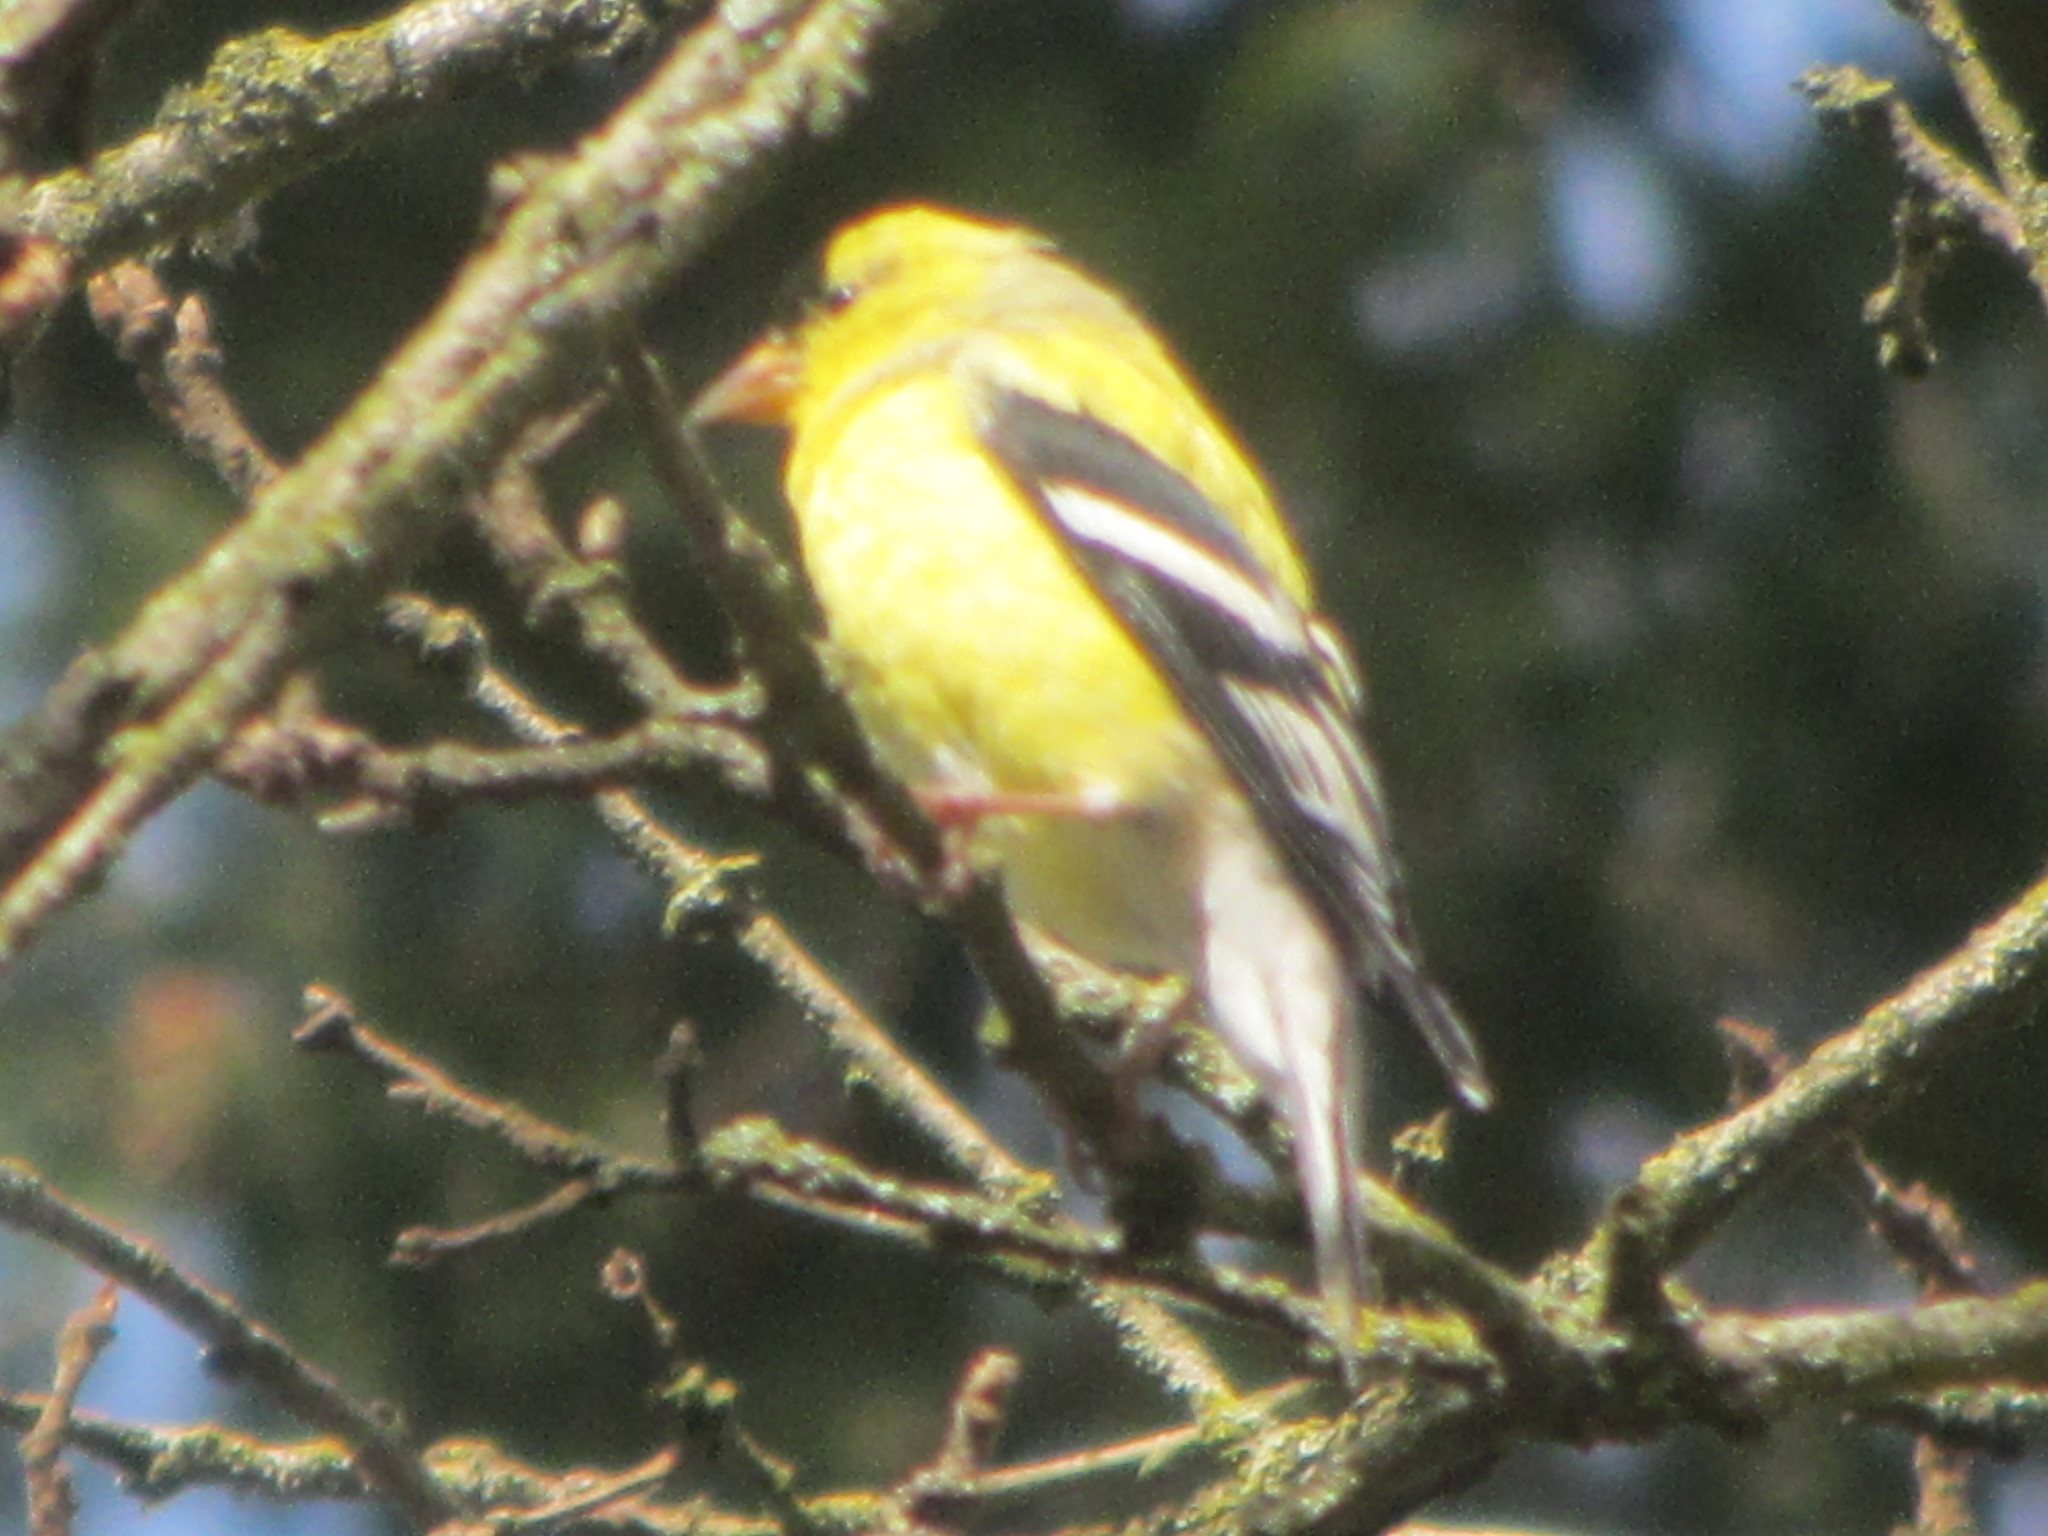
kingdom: Animalia
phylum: Chordata
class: Aves
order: Passeriformes
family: Fringillidae
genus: Spinus
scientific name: Spinus tristis
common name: American goldfinch
